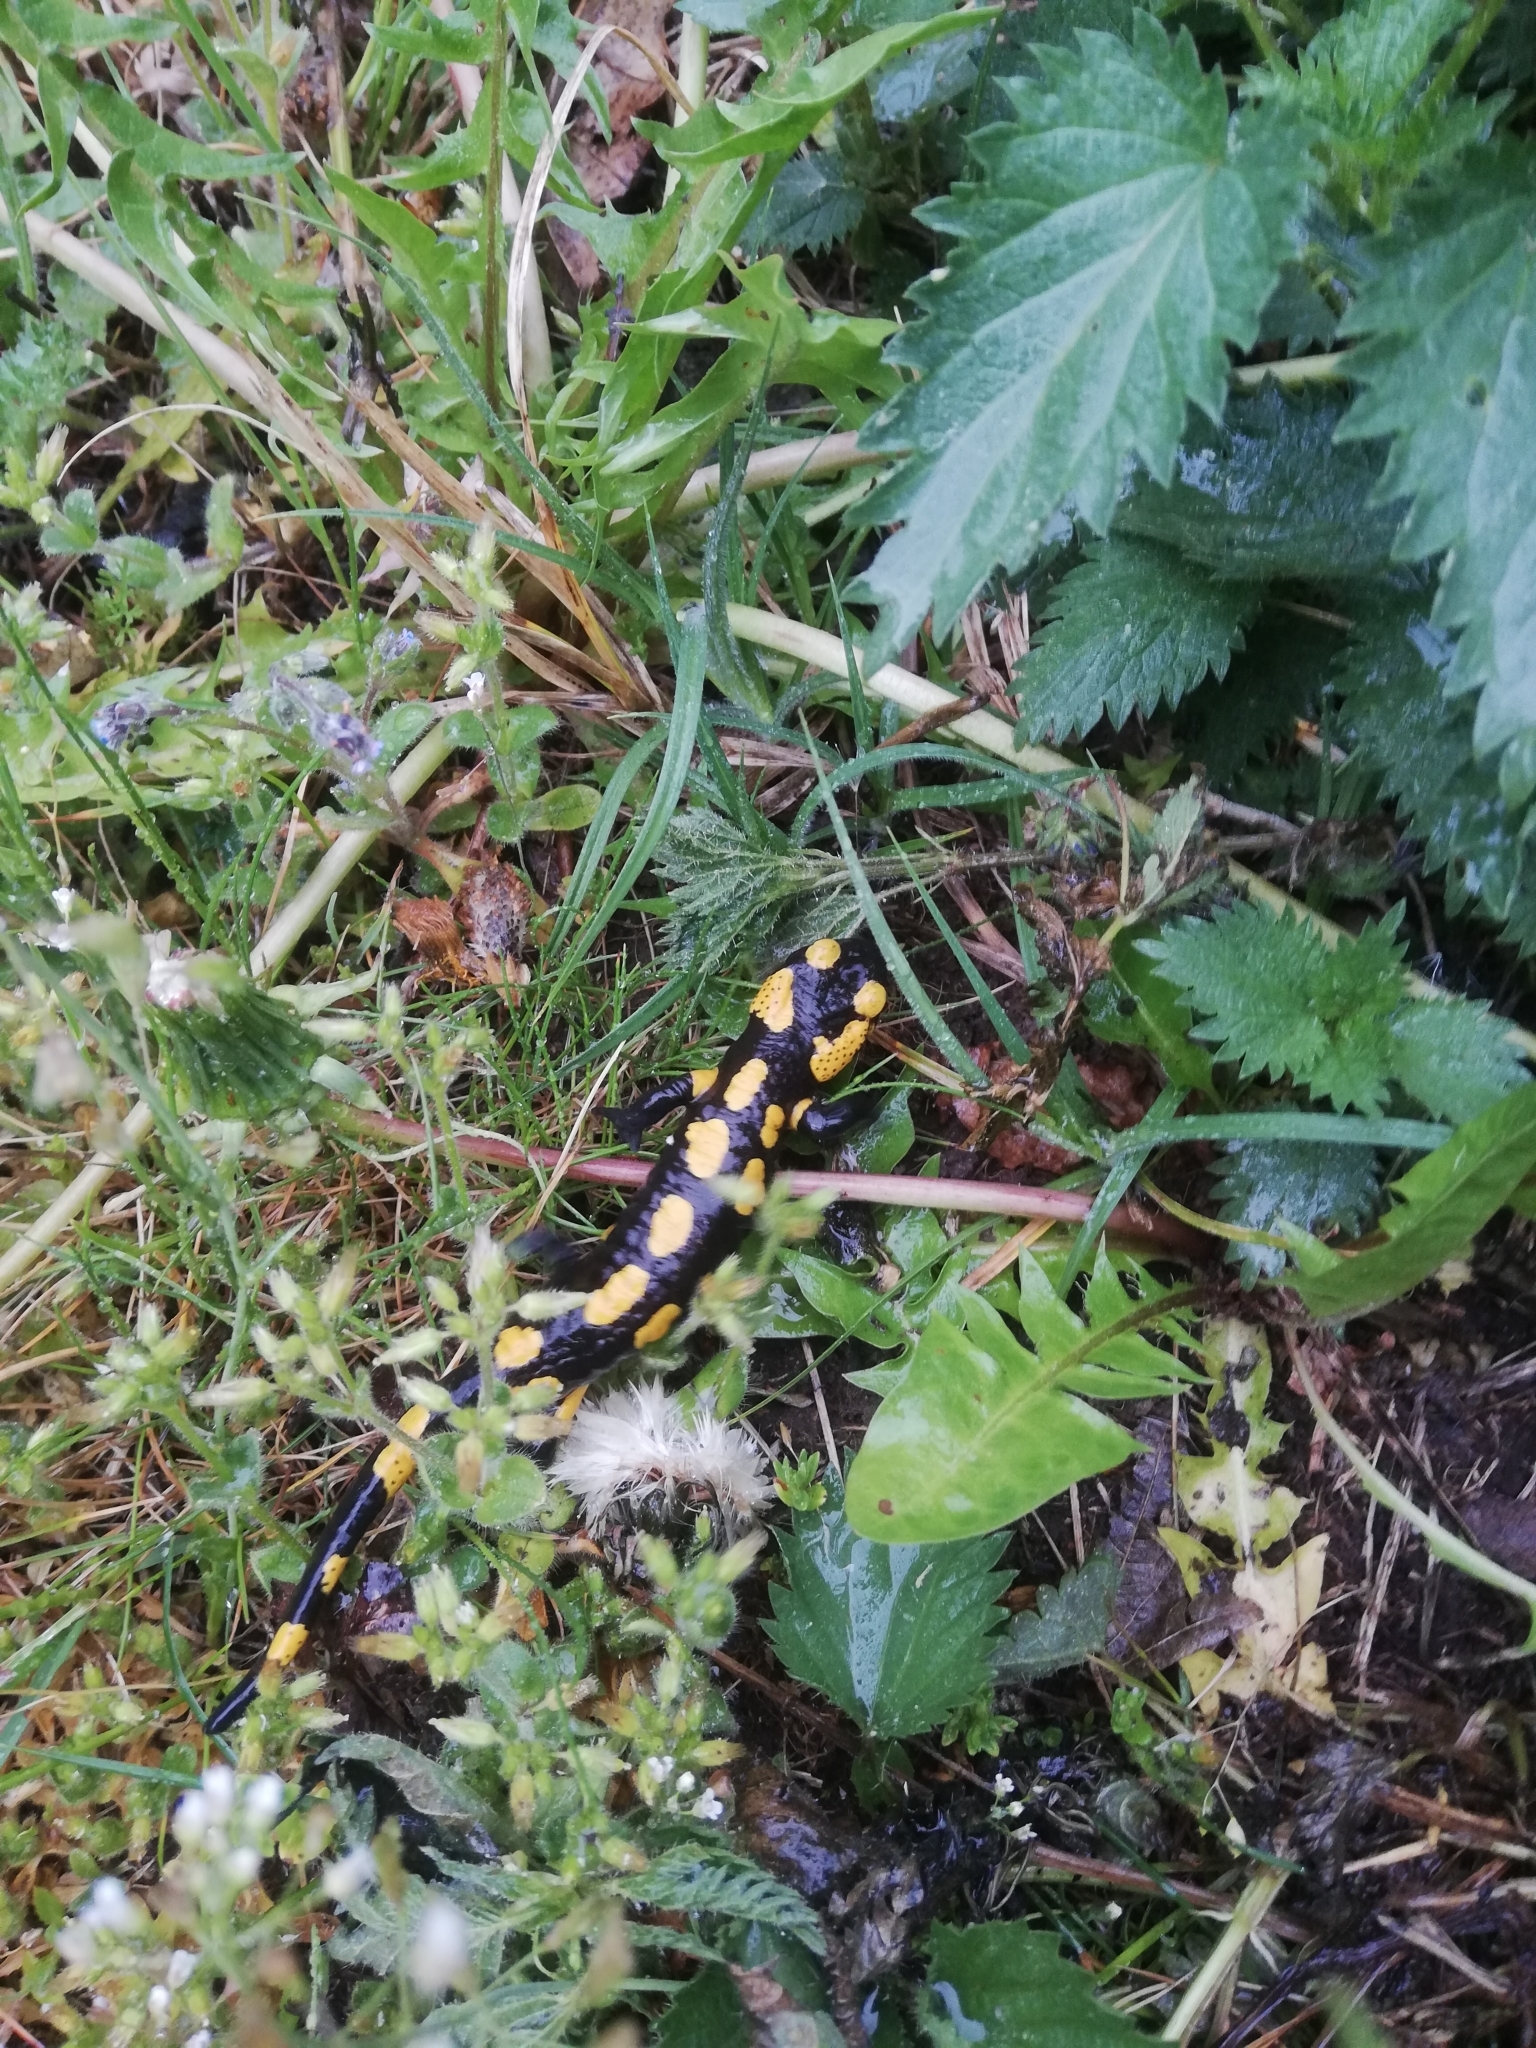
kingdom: Animalia
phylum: Chordata
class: Amphibia
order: Caudata
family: Salamandridae
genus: Salamandra
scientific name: Salamandra salamandra
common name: Fire salamander
